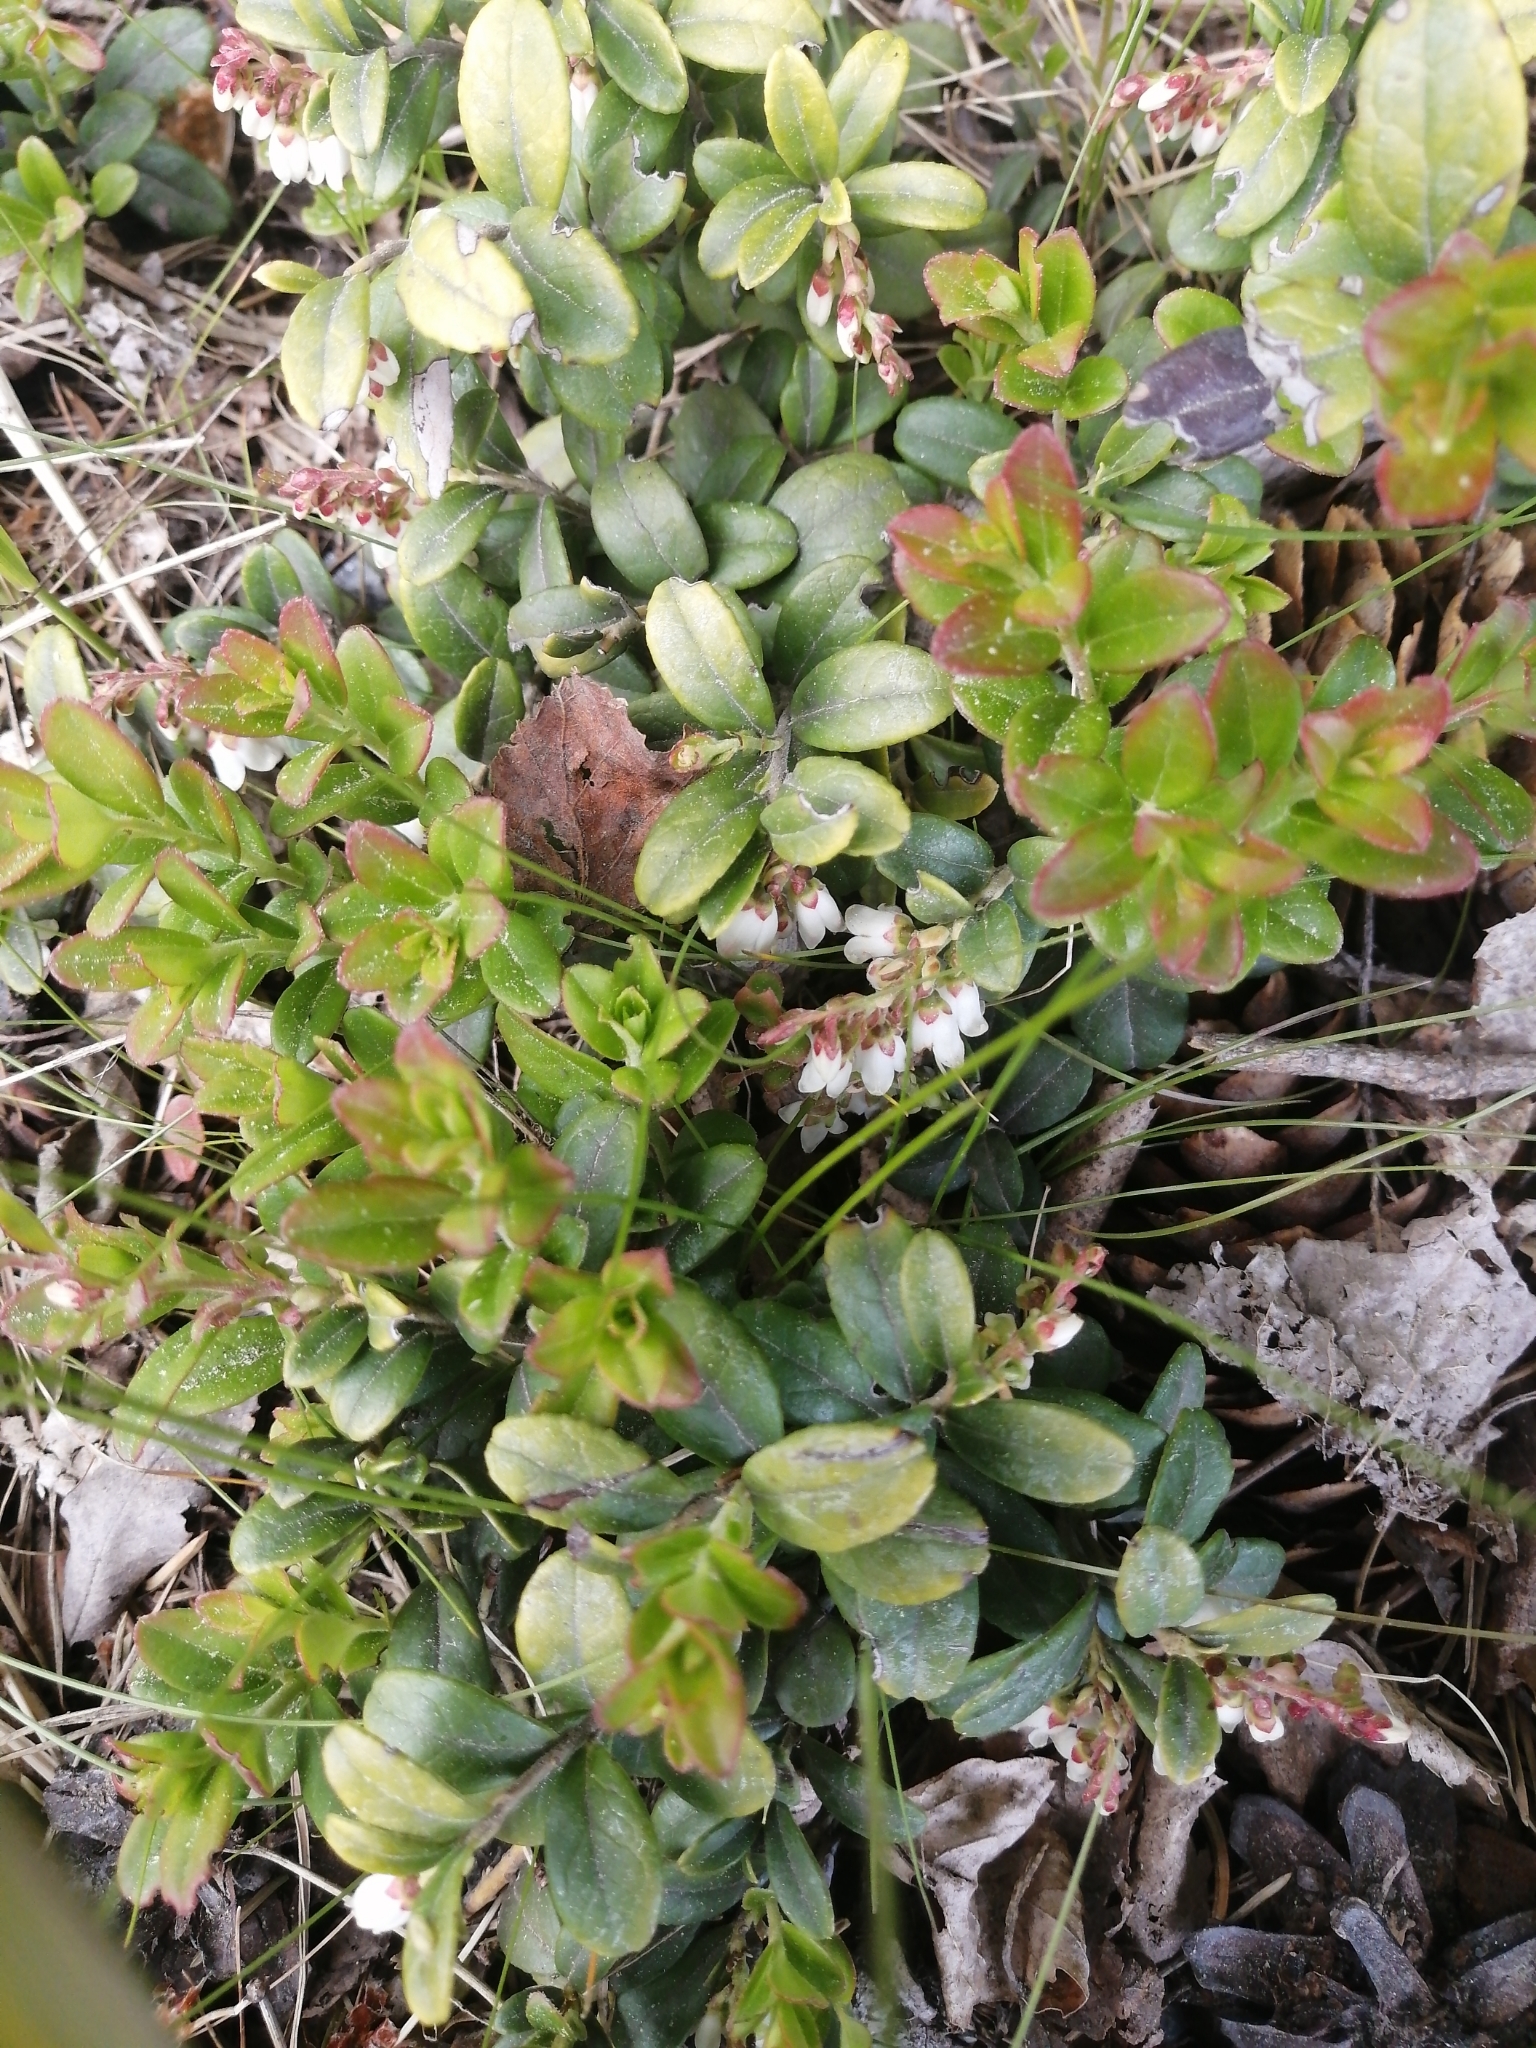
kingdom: Plantae
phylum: Tracheophyta
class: Magnoliopsida
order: Ericales
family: Ericaceae
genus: Vaccinium
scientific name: Vaccinium vitis-idaea
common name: Cowberry
